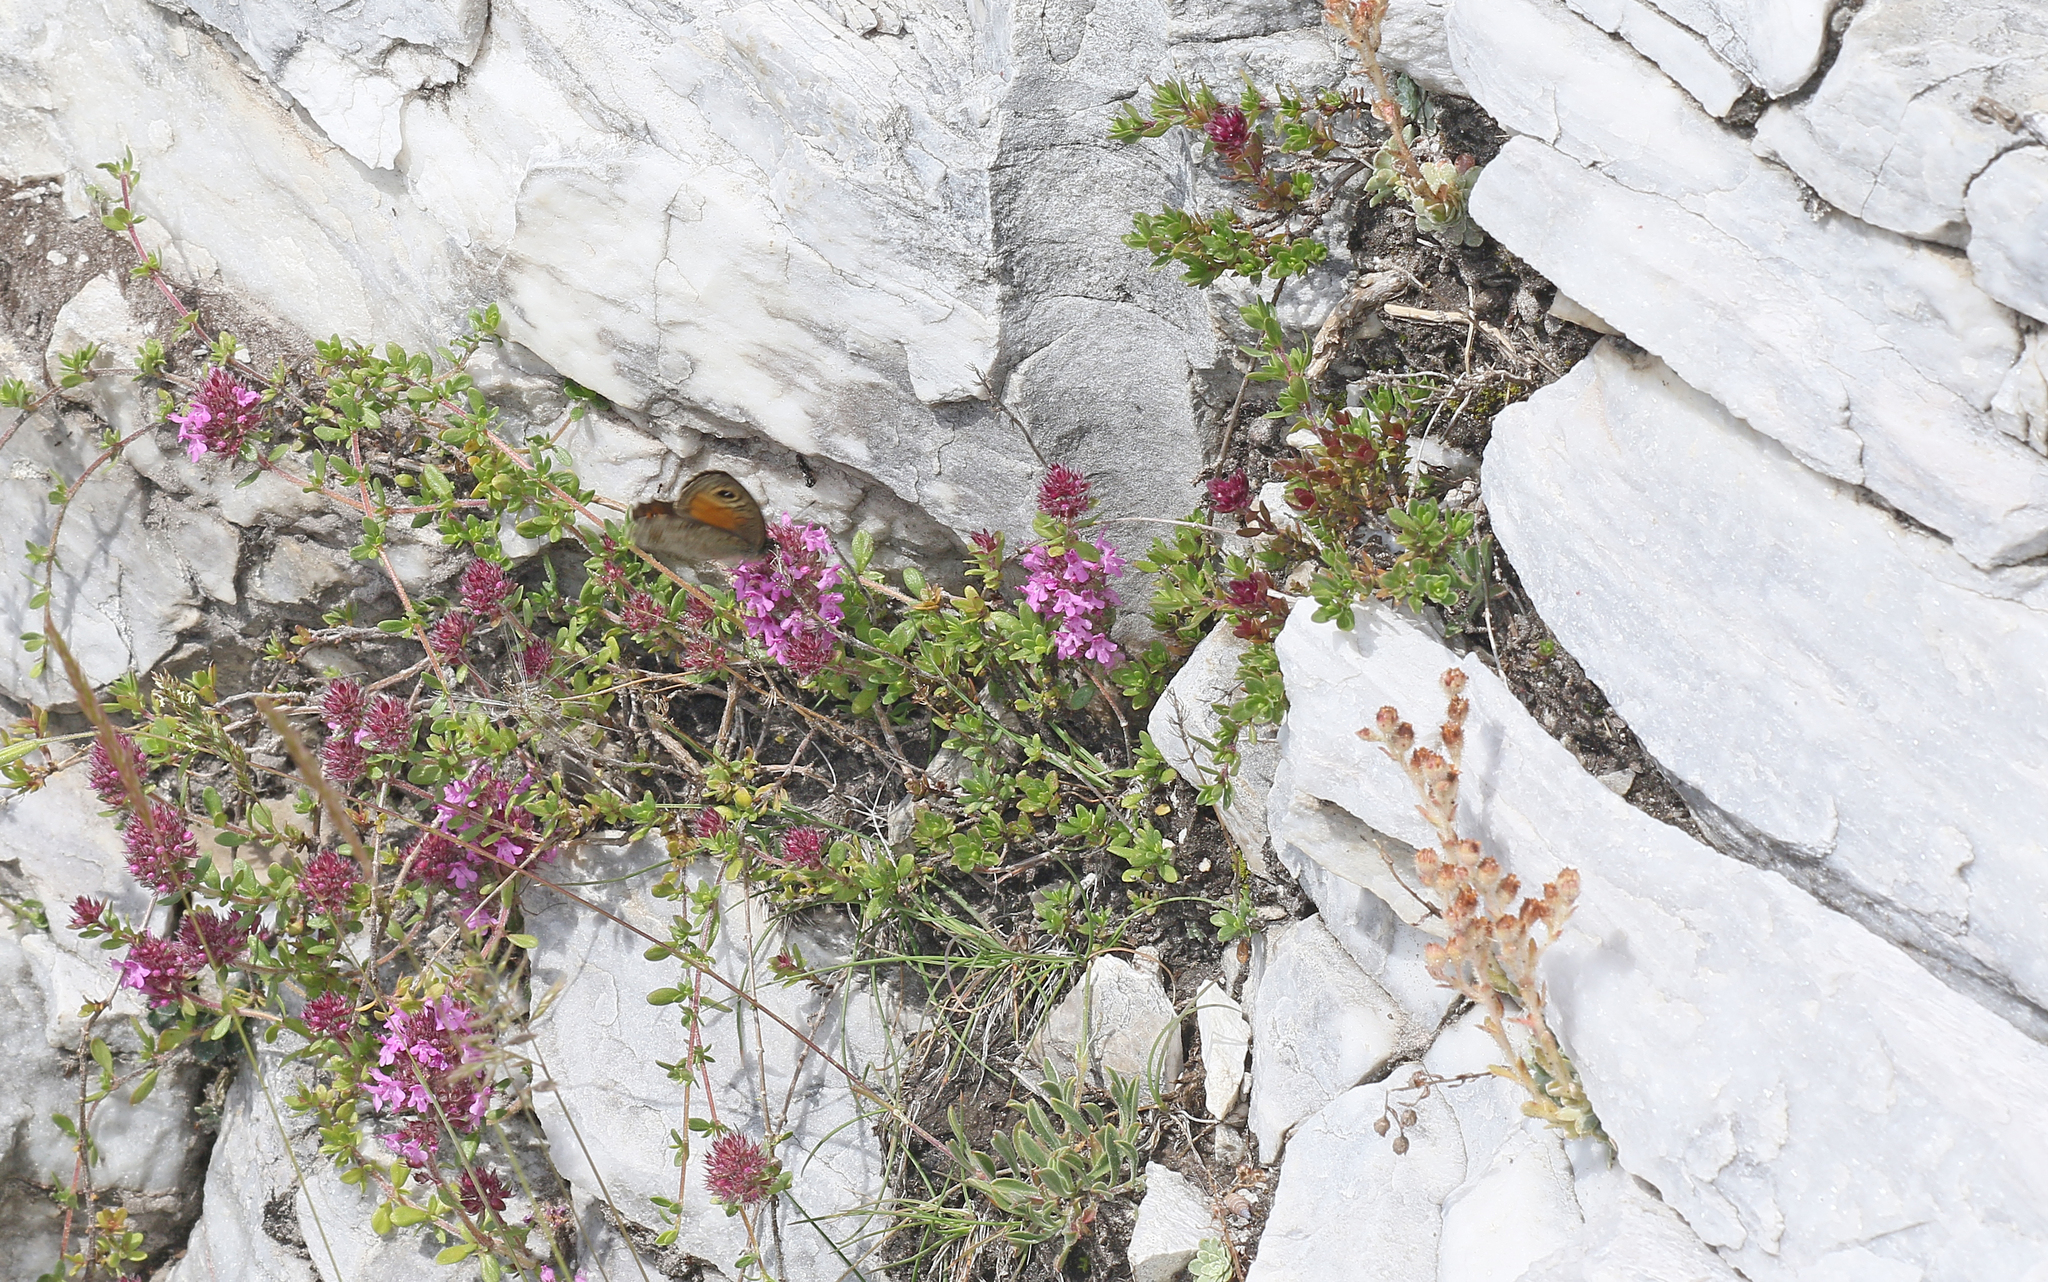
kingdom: Animalia
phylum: Arthropoda
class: Insecta
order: Lepidoptera
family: Nymphalidae
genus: Pararge
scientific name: Pararge Lasiommata maera
